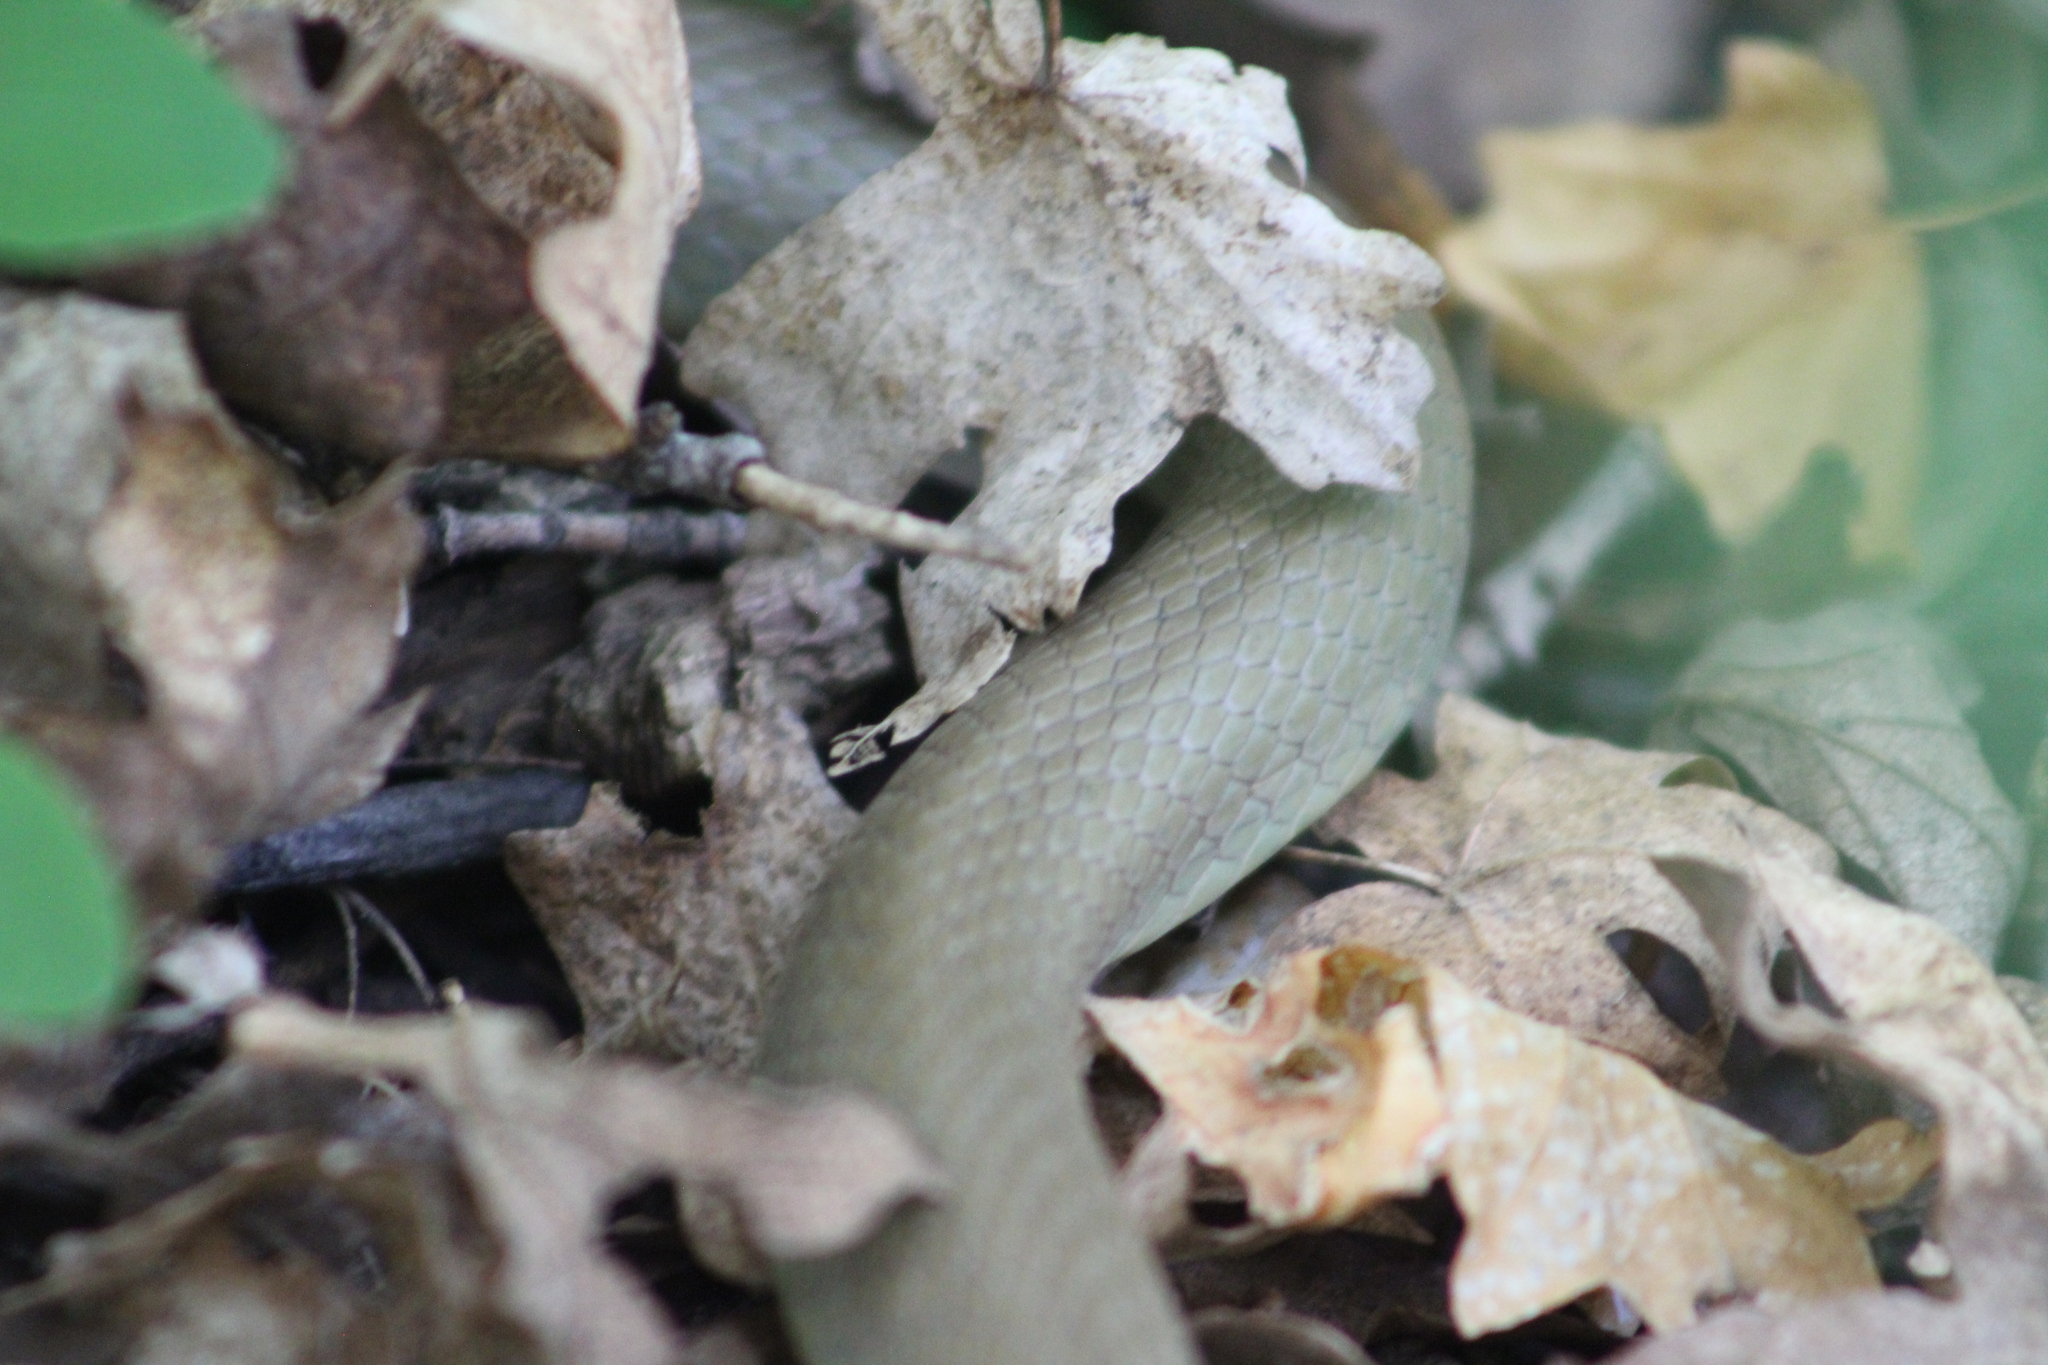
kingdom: Animalia
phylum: Chordata
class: Squamata
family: Colubridae
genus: Coluber
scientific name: Coluber constrictor
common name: Eastern racer
